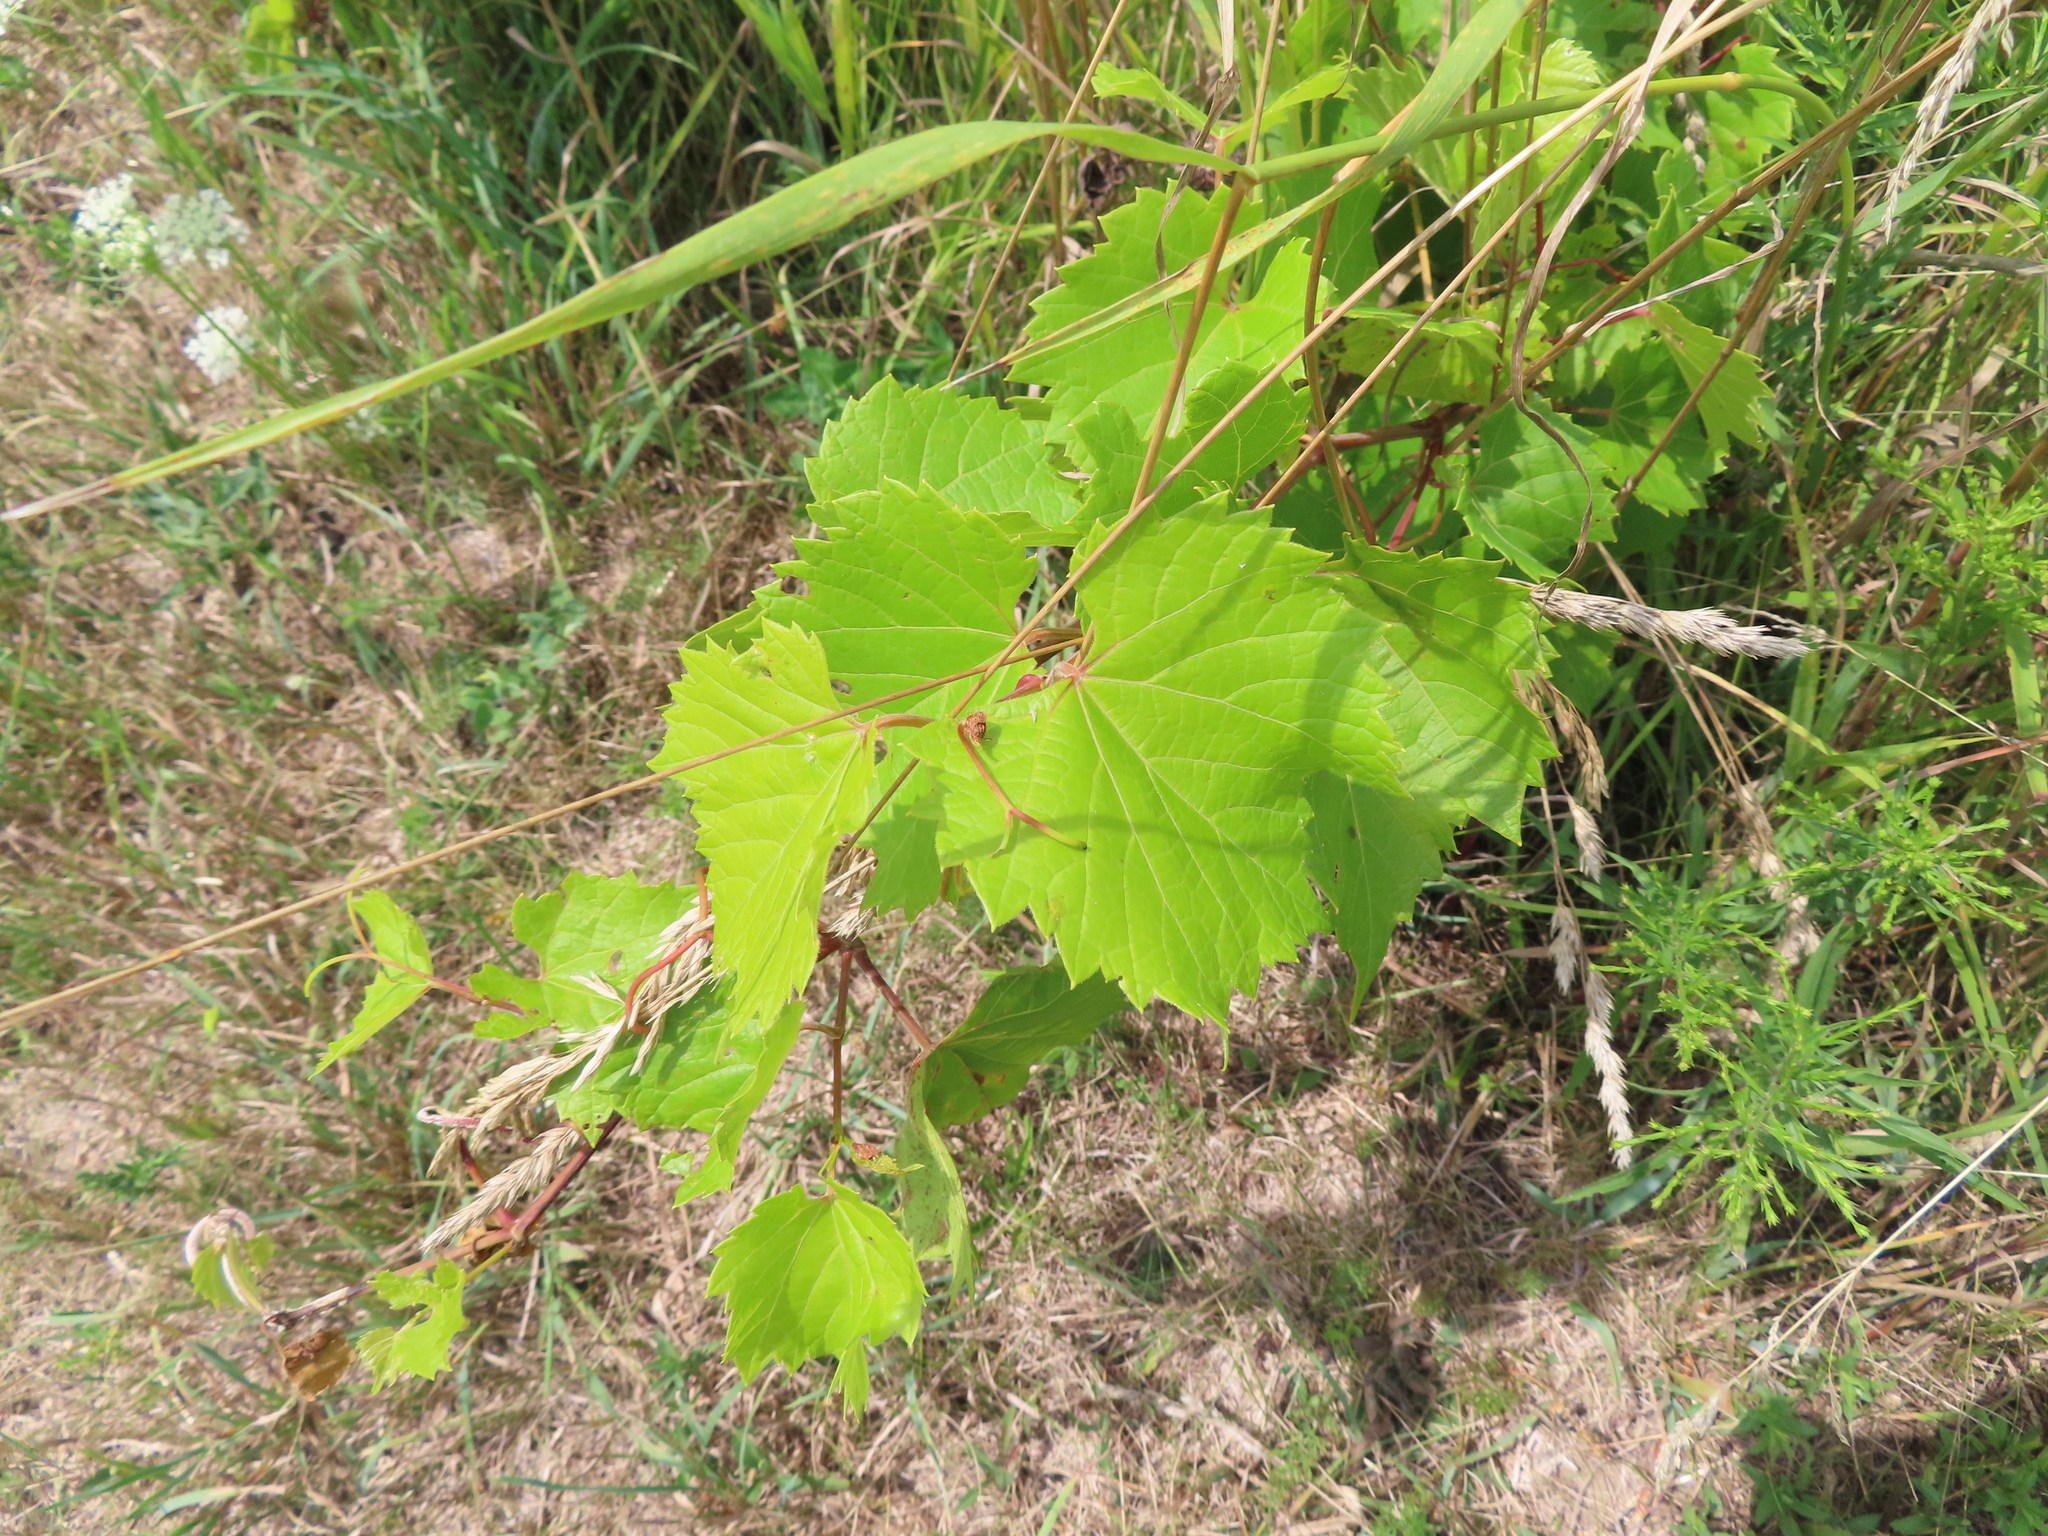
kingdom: Plantae
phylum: Tracheophyta
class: Magnoliopsida
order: Vitales
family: Vitaceae
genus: Vitis
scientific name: Vitis riparia
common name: Frost grape
